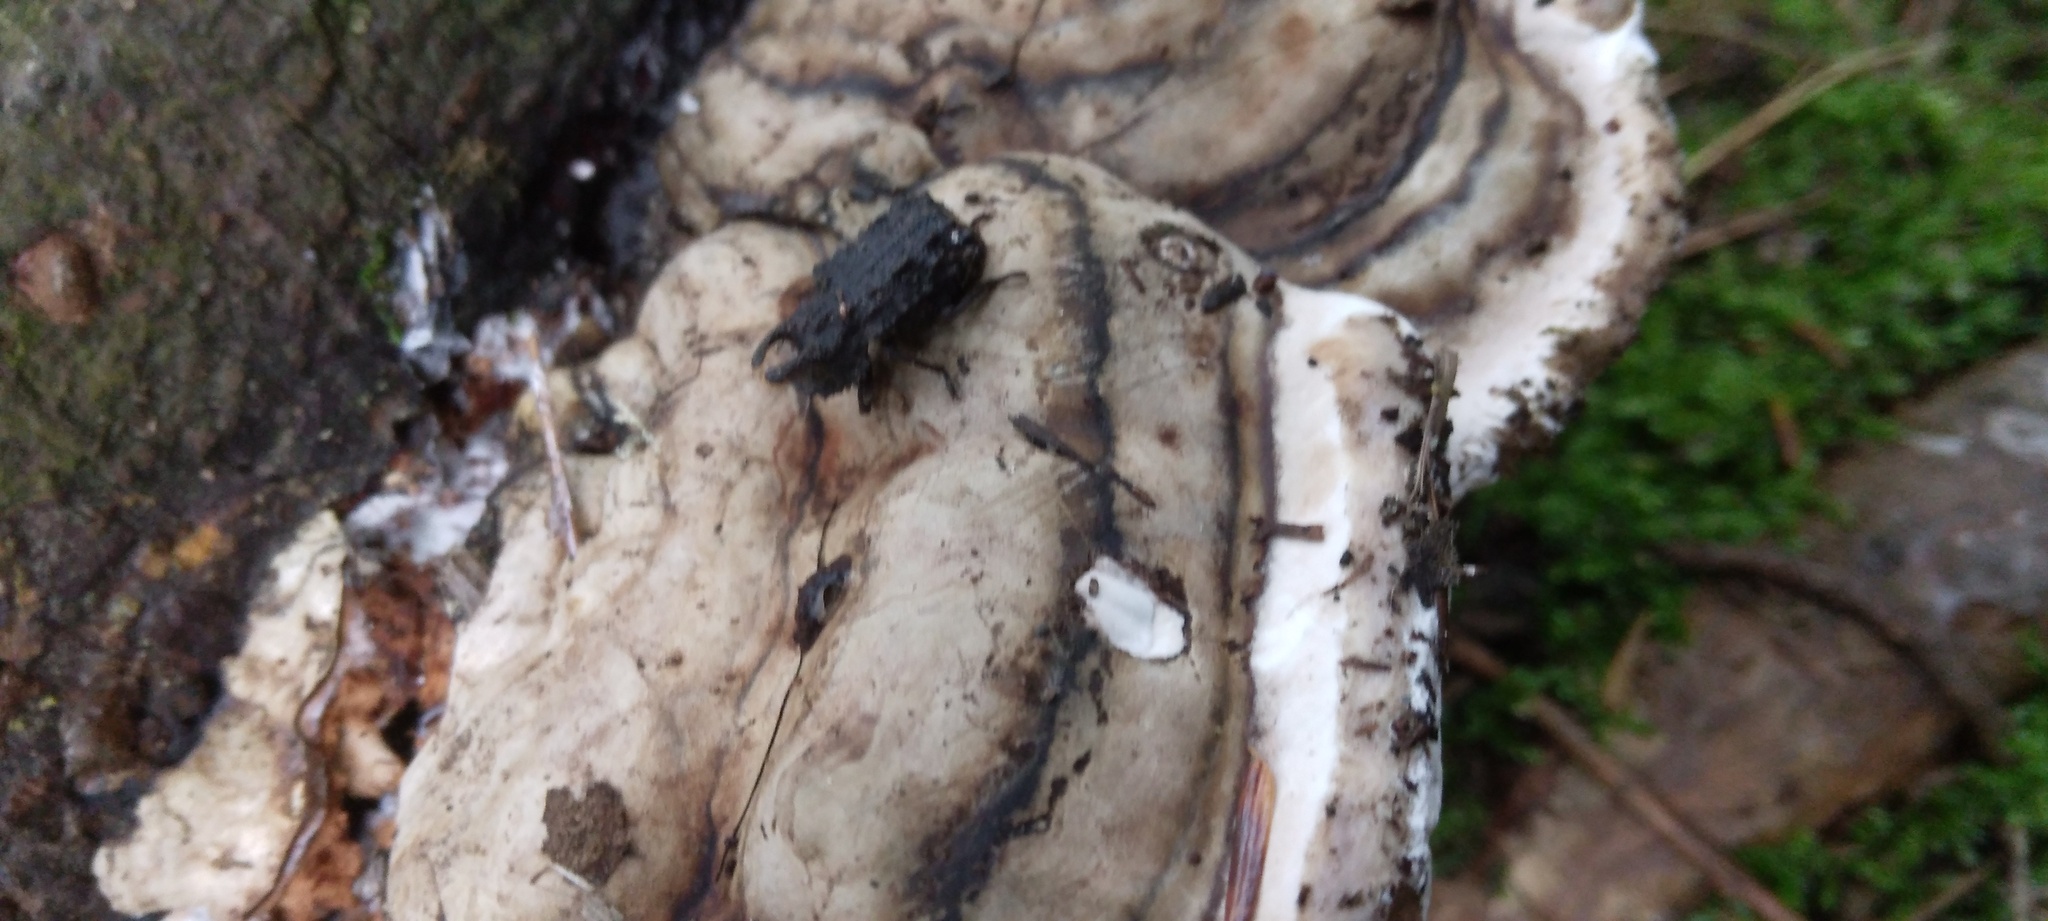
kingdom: Animalia
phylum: Arthropoda
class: Insecta
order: Coleoptera
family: Tenebrionidae
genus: Gnatocerus
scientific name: Gnatocerus cornutus
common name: Broad-horned flour beetle
